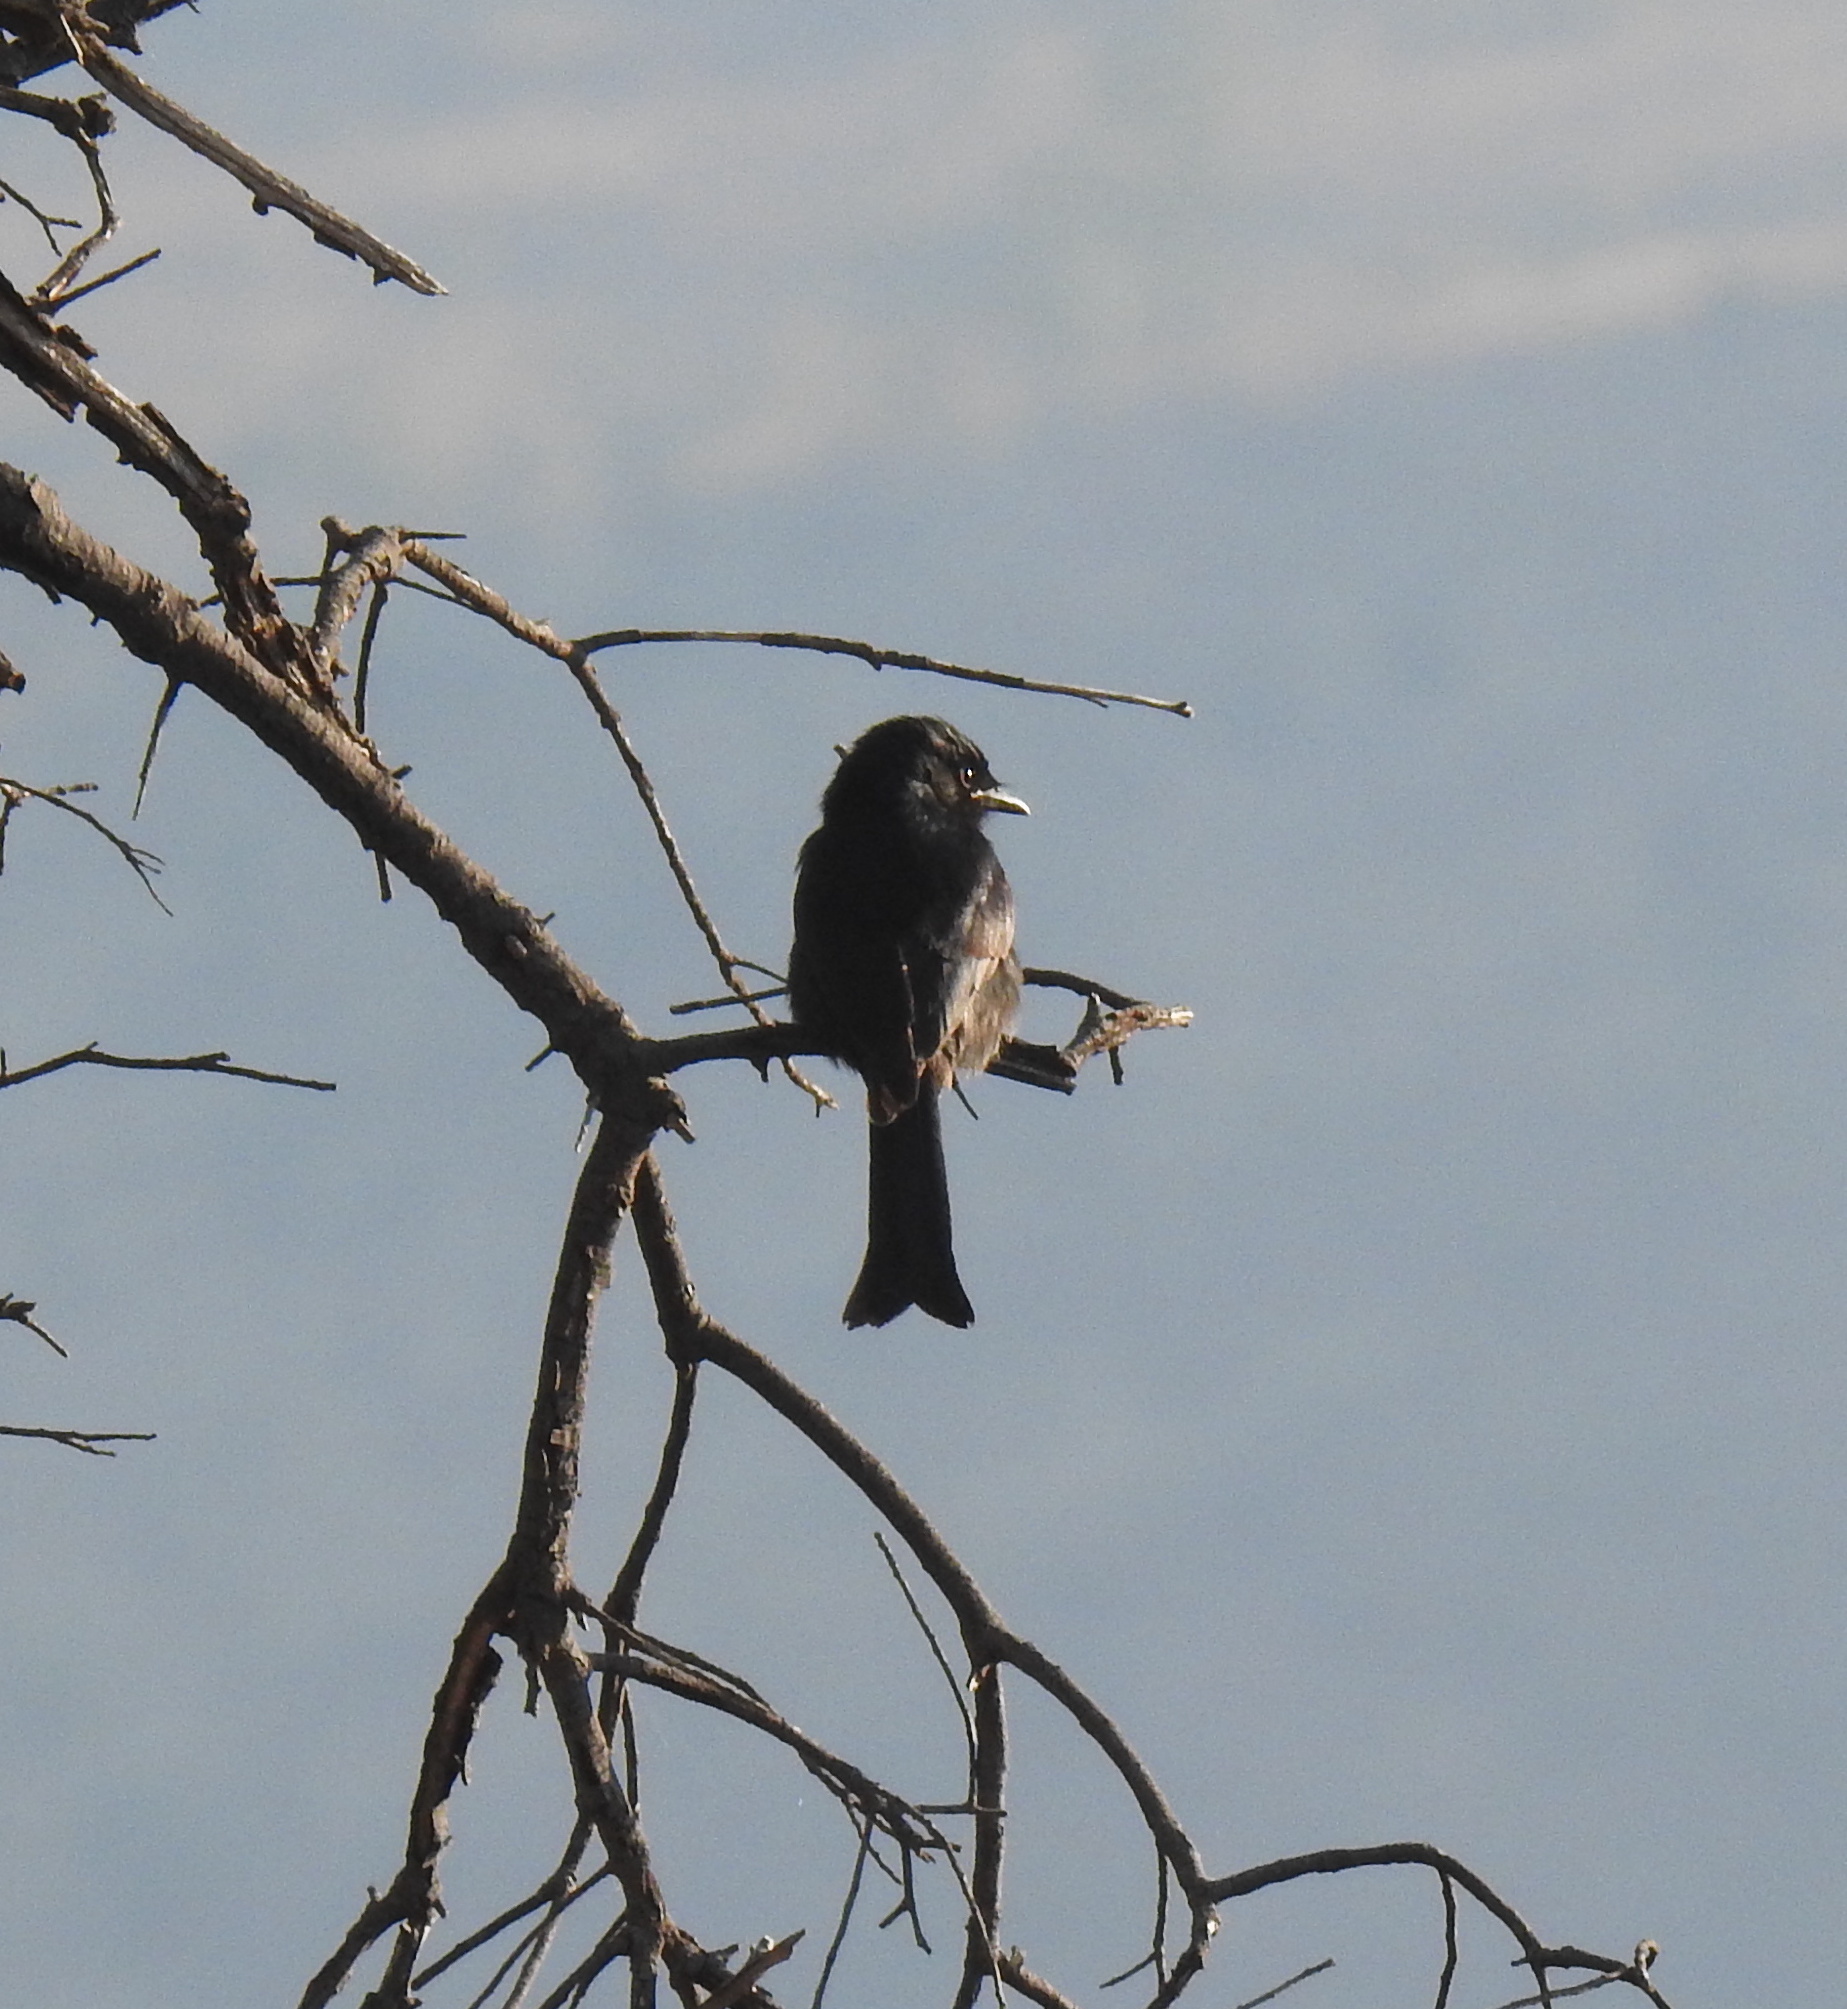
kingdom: Animalia
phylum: Chordata
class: Aves
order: Passeriformes
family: Dicruridae
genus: Dicrurus
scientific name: Dicrurus adsimilis
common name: Fork-tailed drongo
